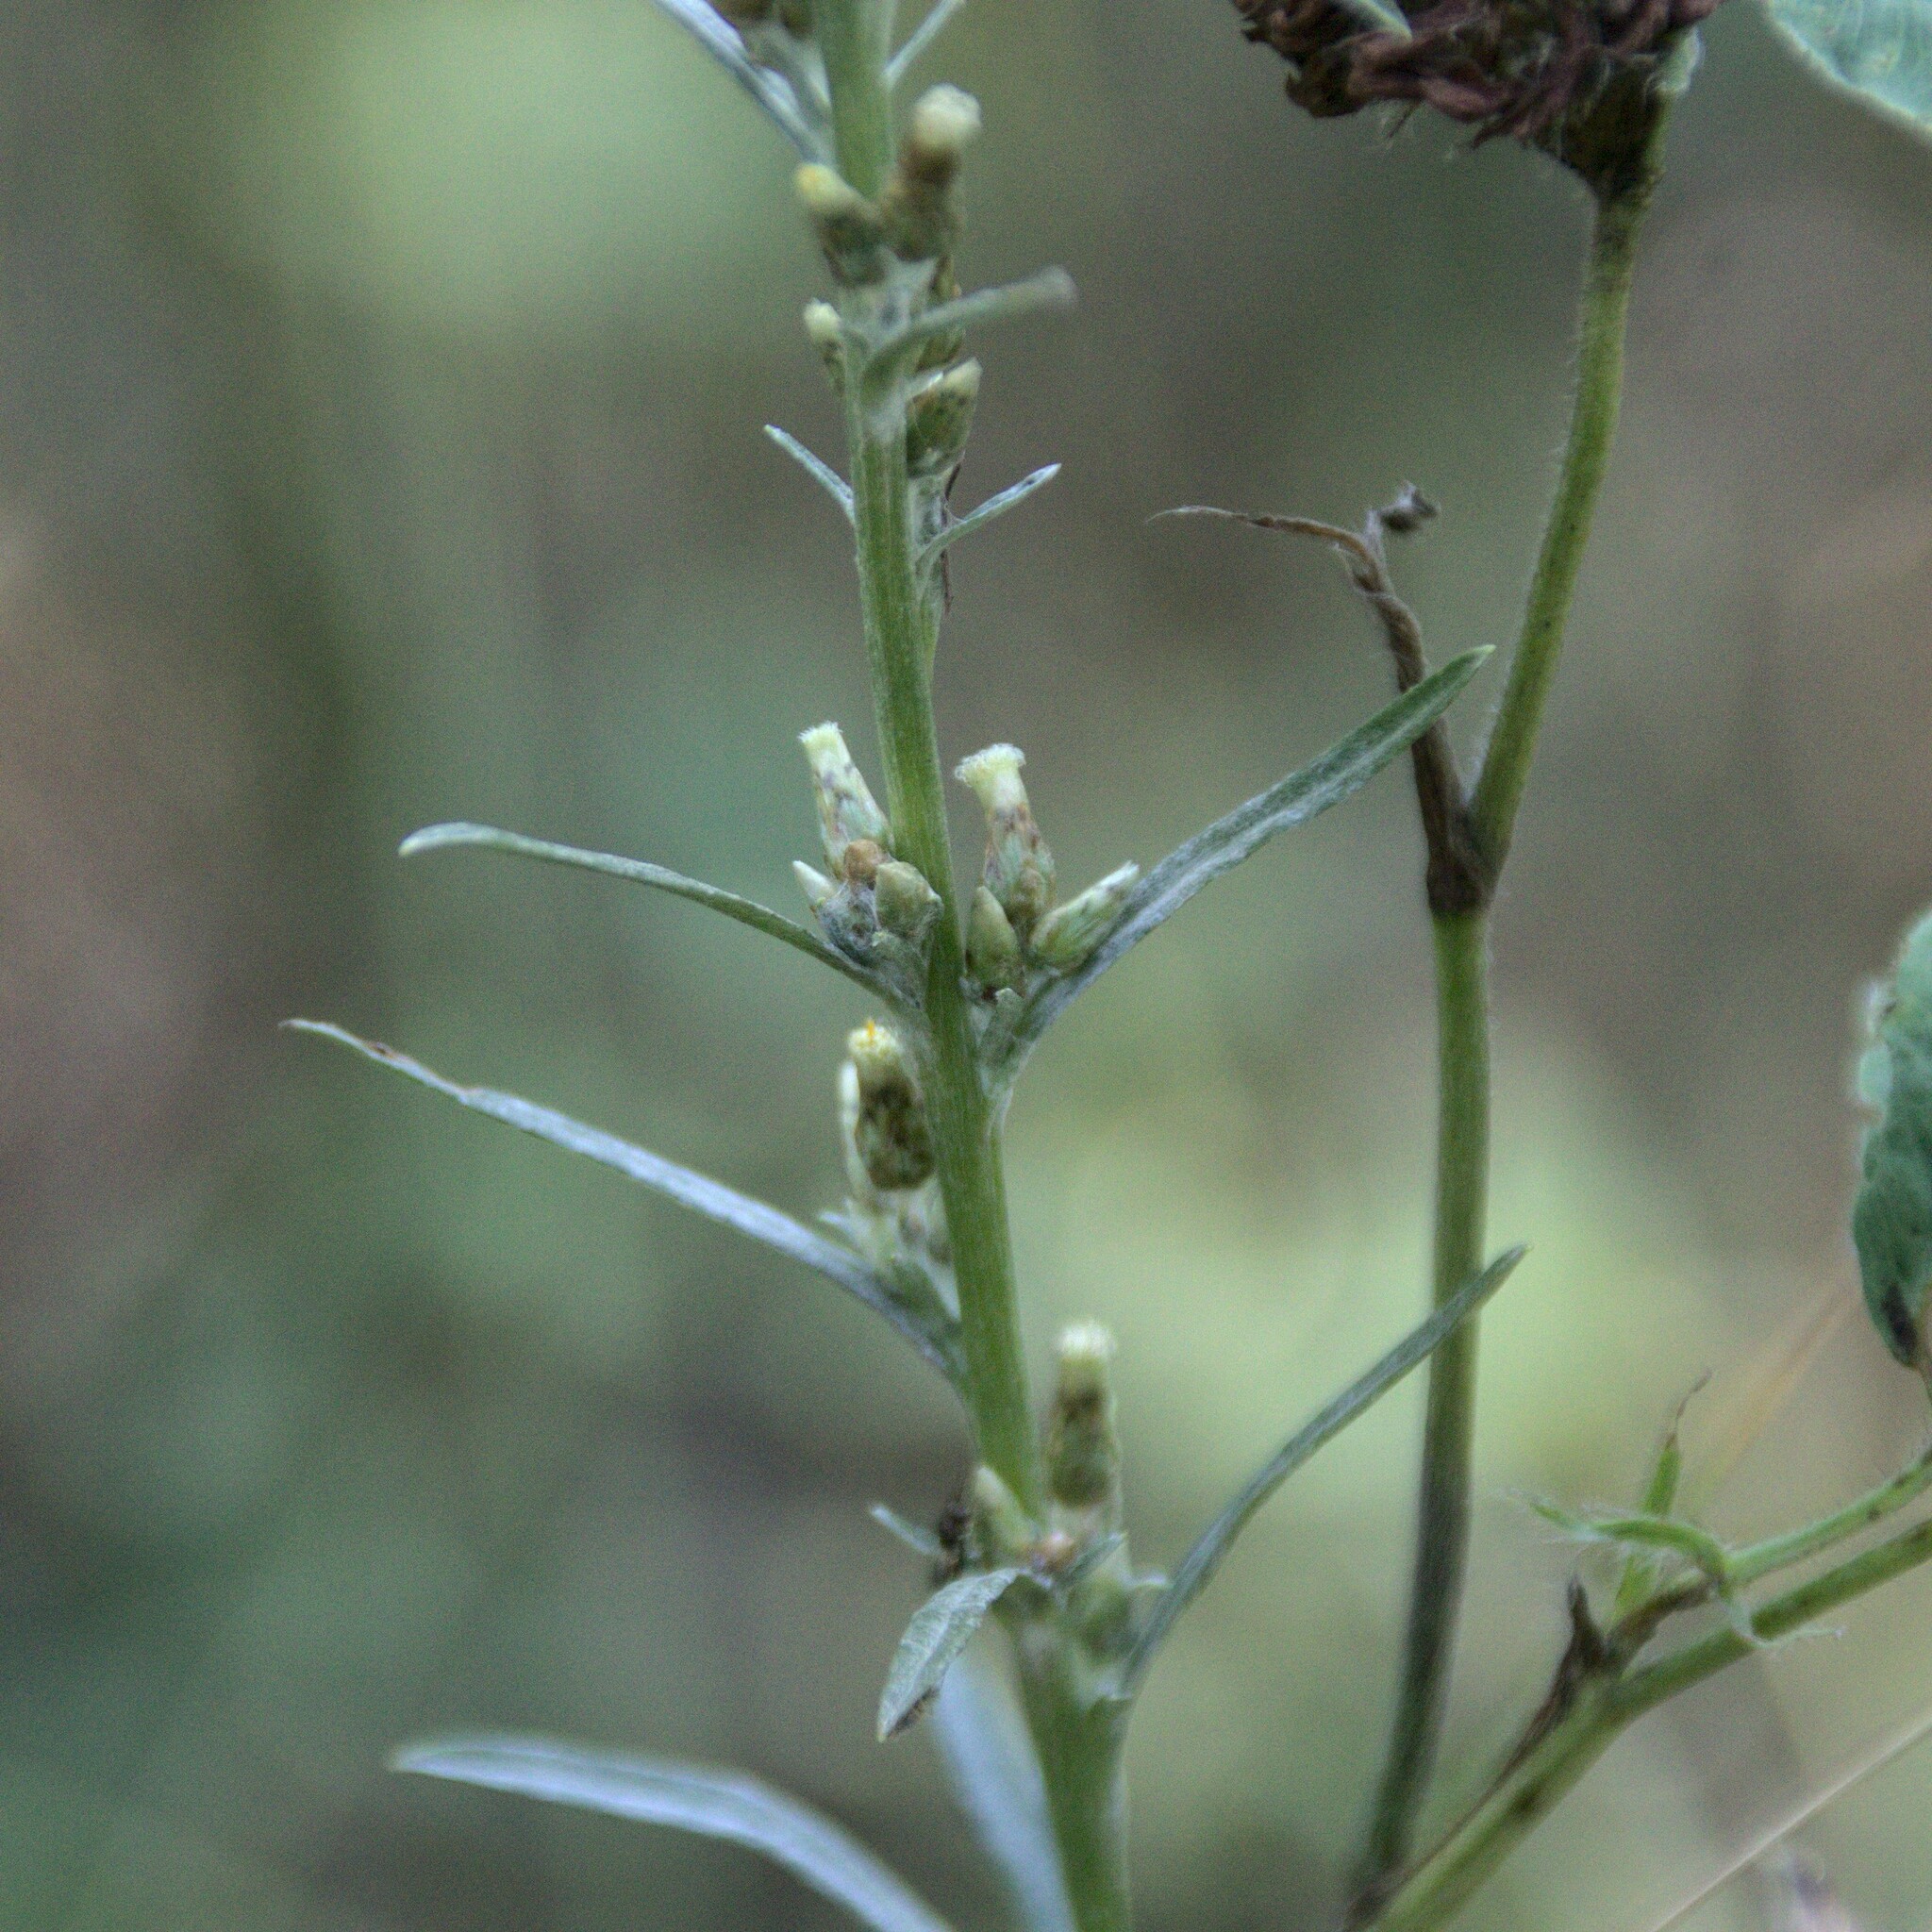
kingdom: Plantae
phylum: Tracheophyta
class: Magnoliopsida
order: Asterales
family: Asteraceae
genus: Omalotheca
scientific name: Omalotheca sylvatica
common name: Heath cudweed
